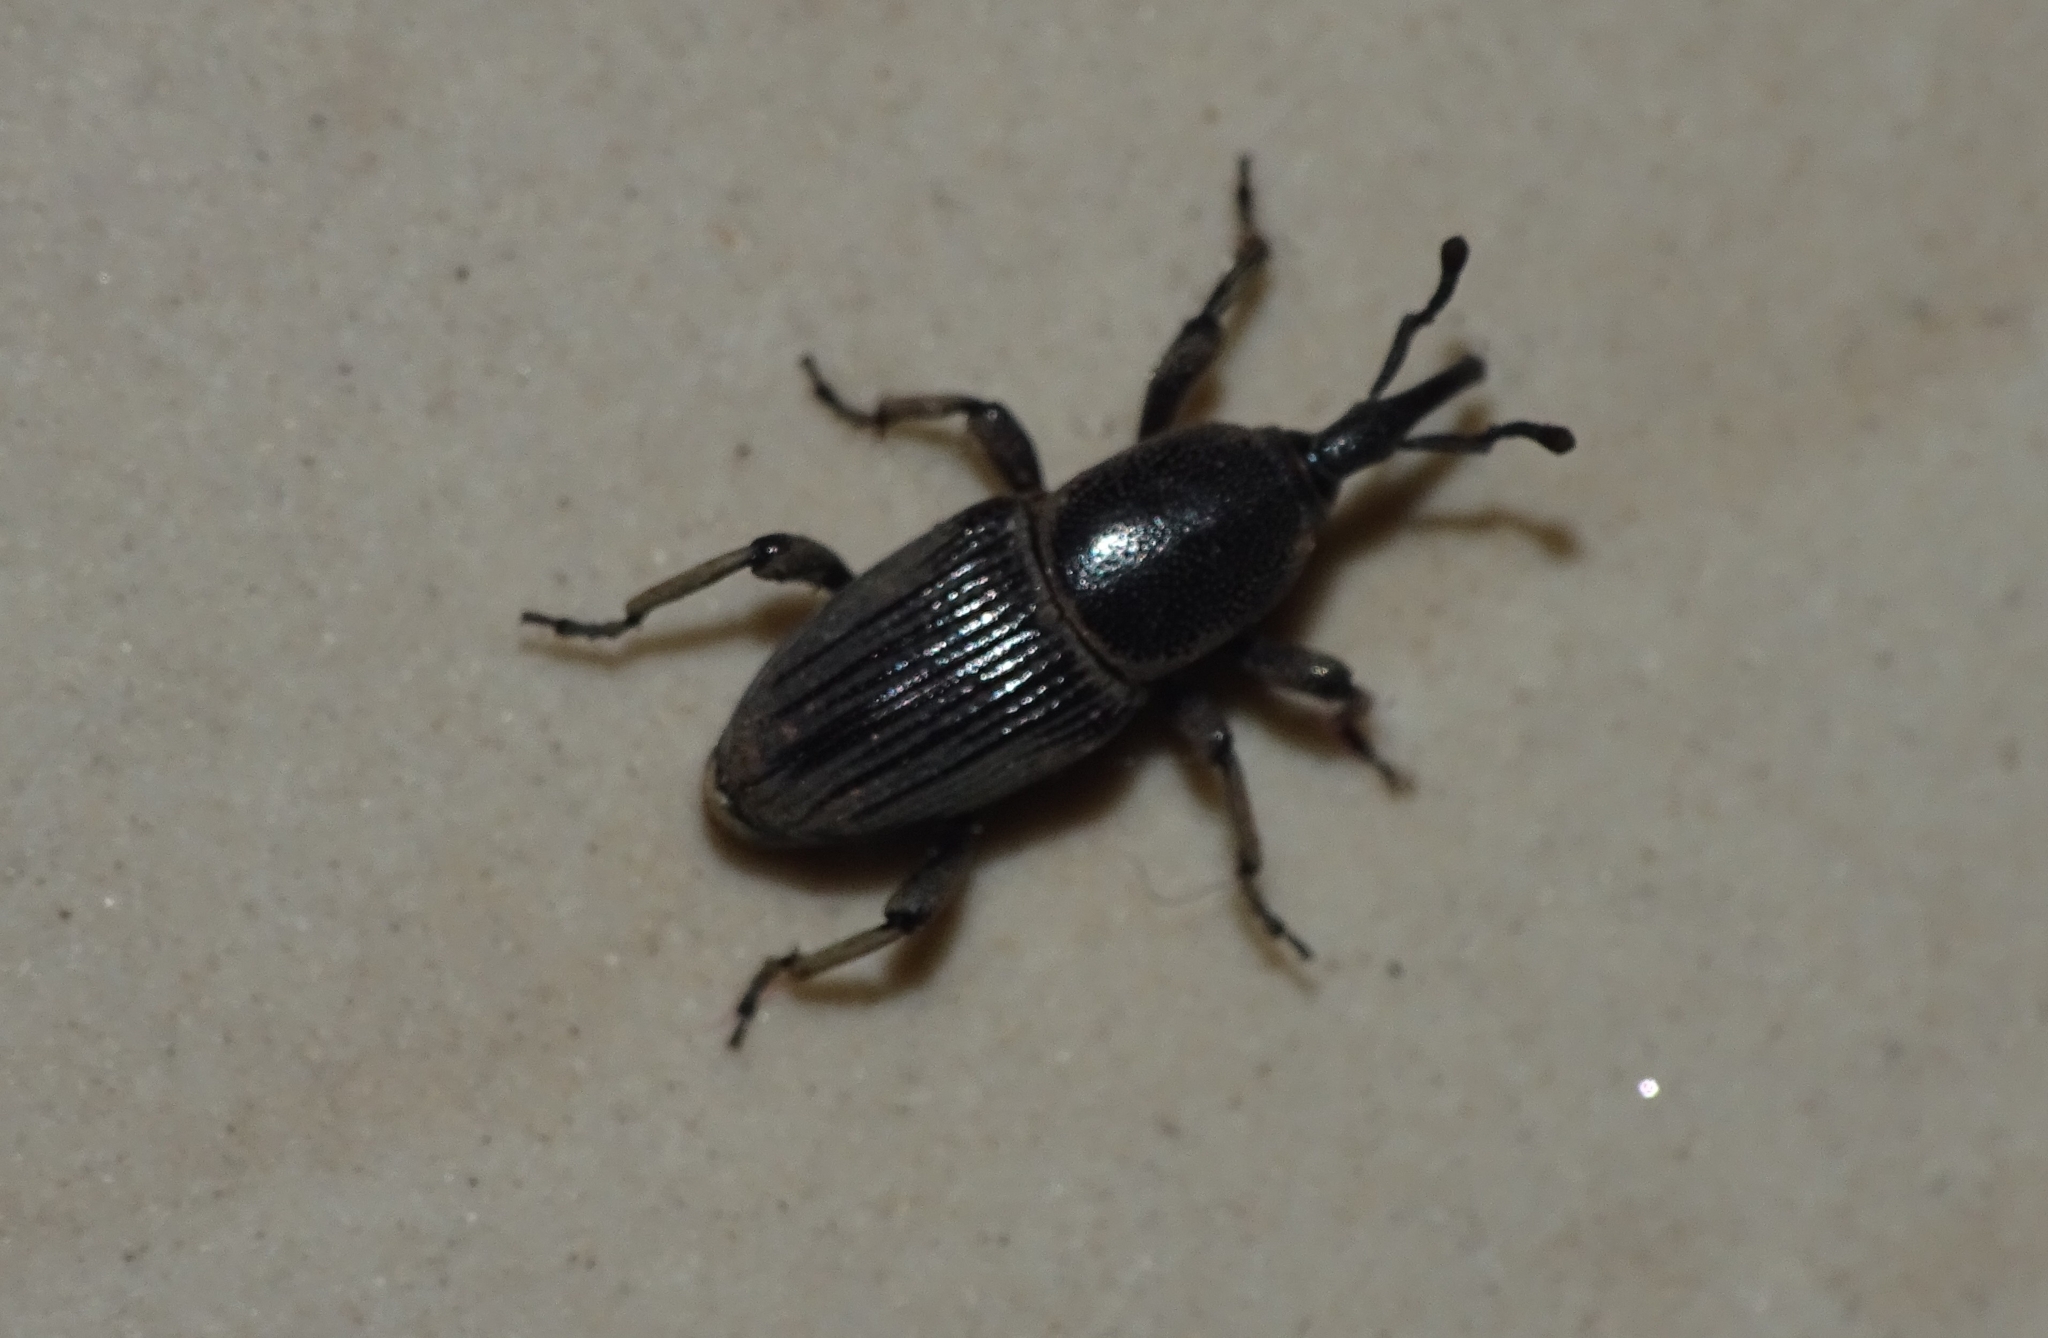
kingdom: Animalia
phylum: Arthropoda
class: Insecta
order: Coleoptera
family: Dryophthoridae
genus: Cosmopolites
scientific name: Cosmopolites sordidus
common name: Palm weevil
